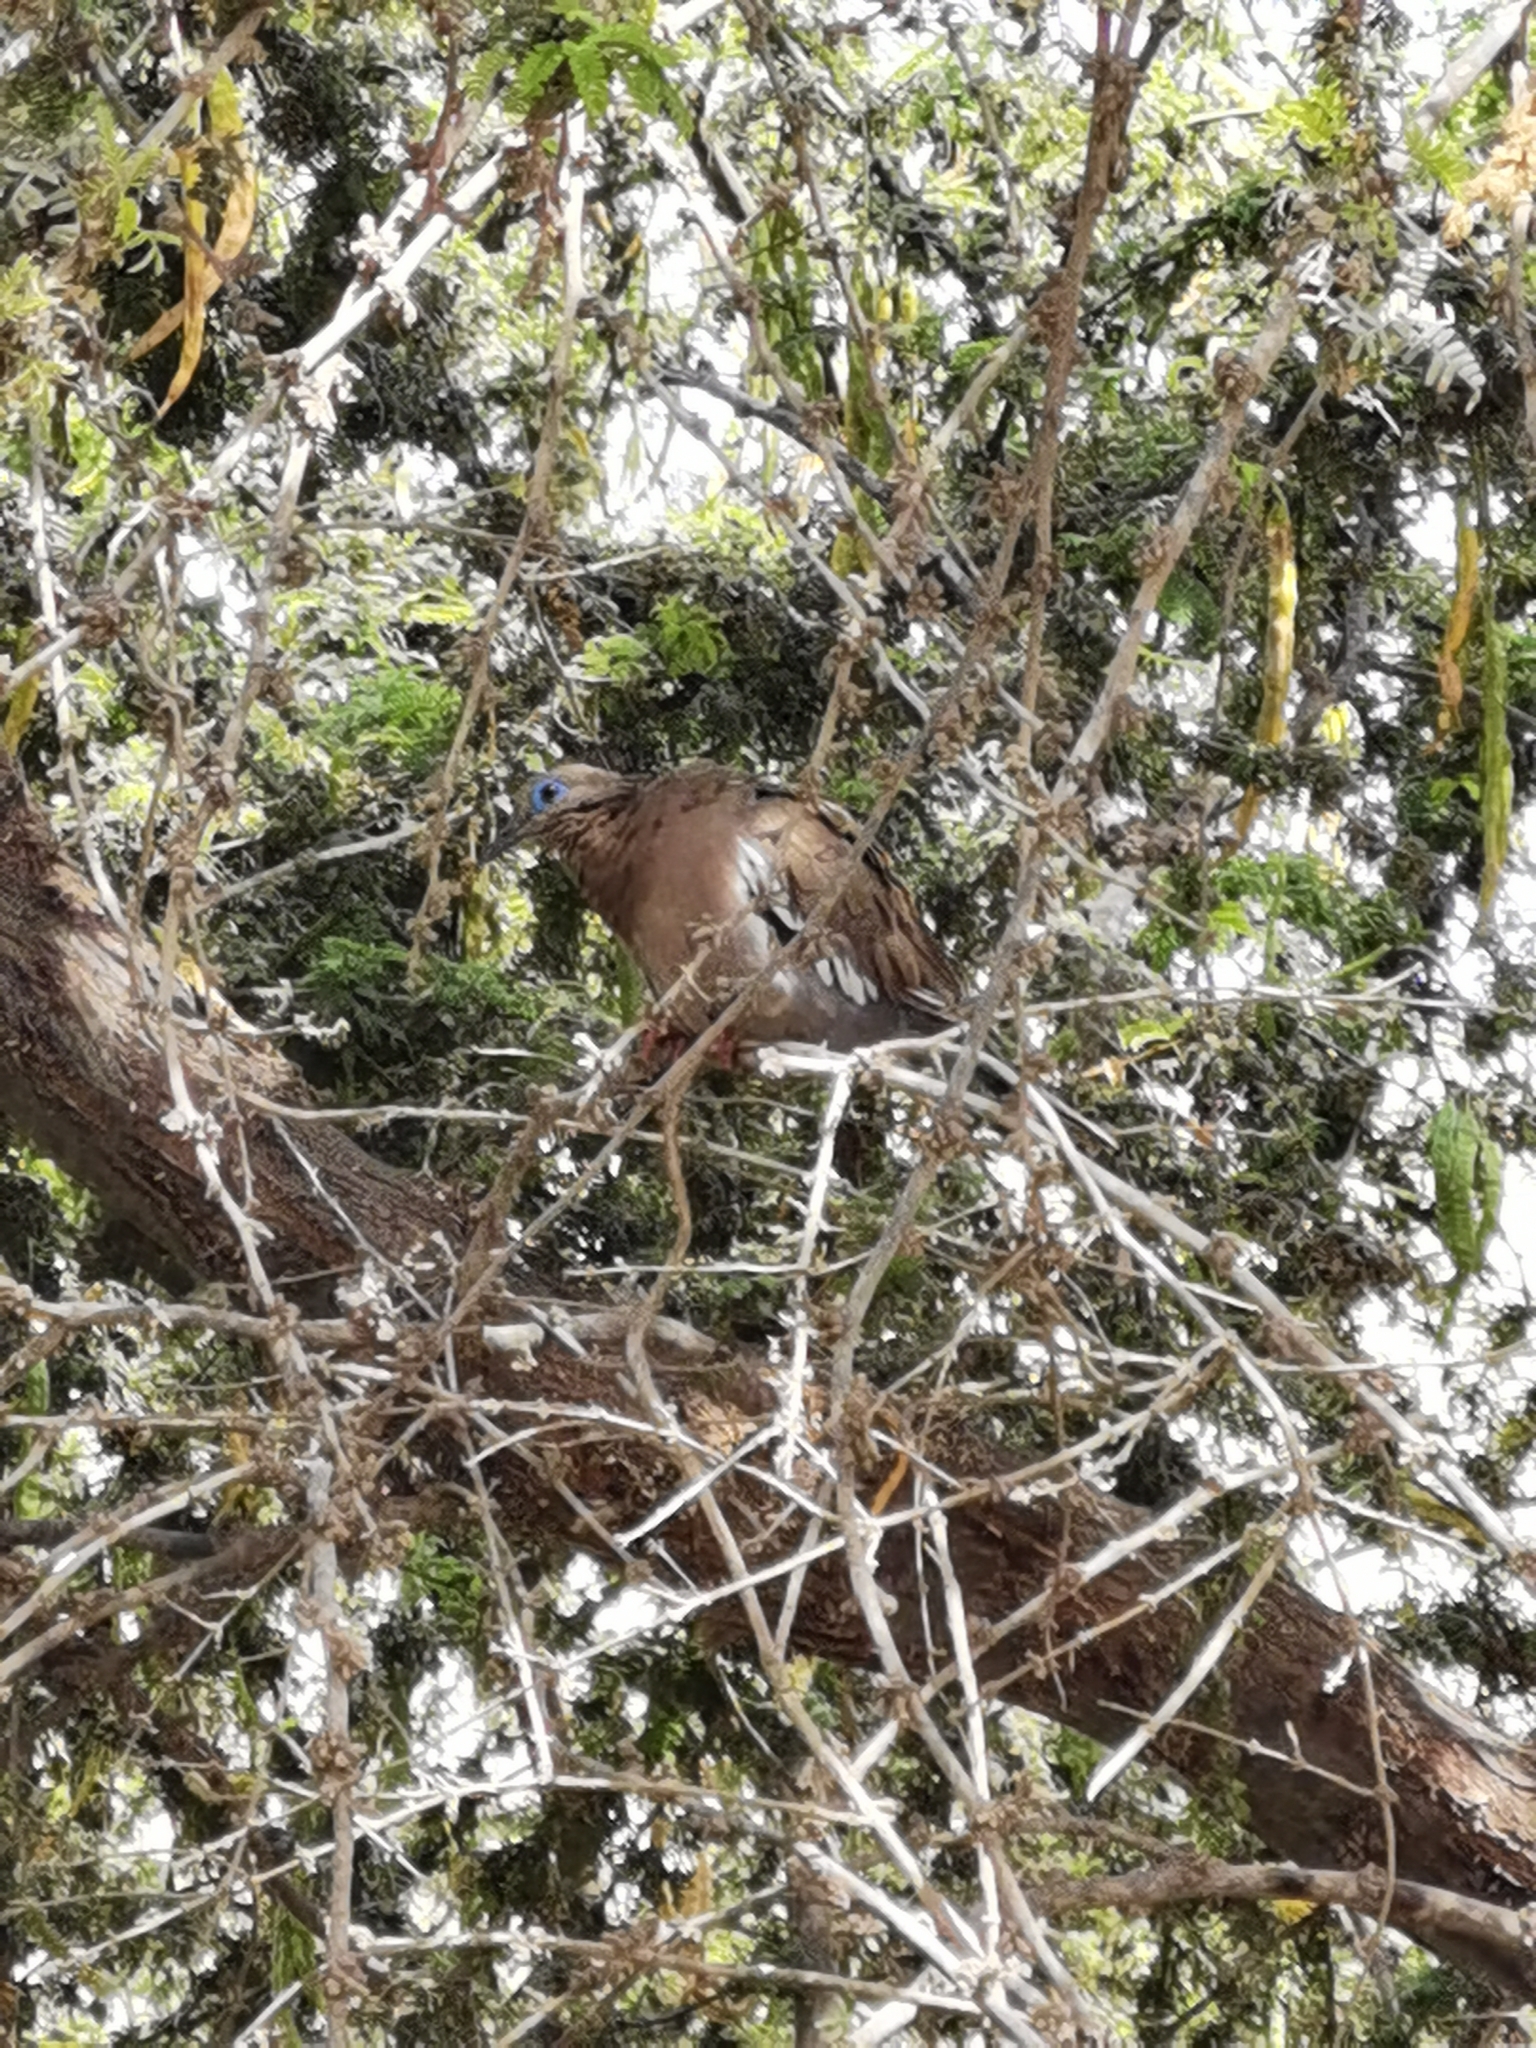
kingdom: Animalia
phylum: Chordata
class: Aves
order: Columbiformes
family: Columbidae
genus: Zenaida
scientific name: Zenaida meloda
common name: West peruvian dove
